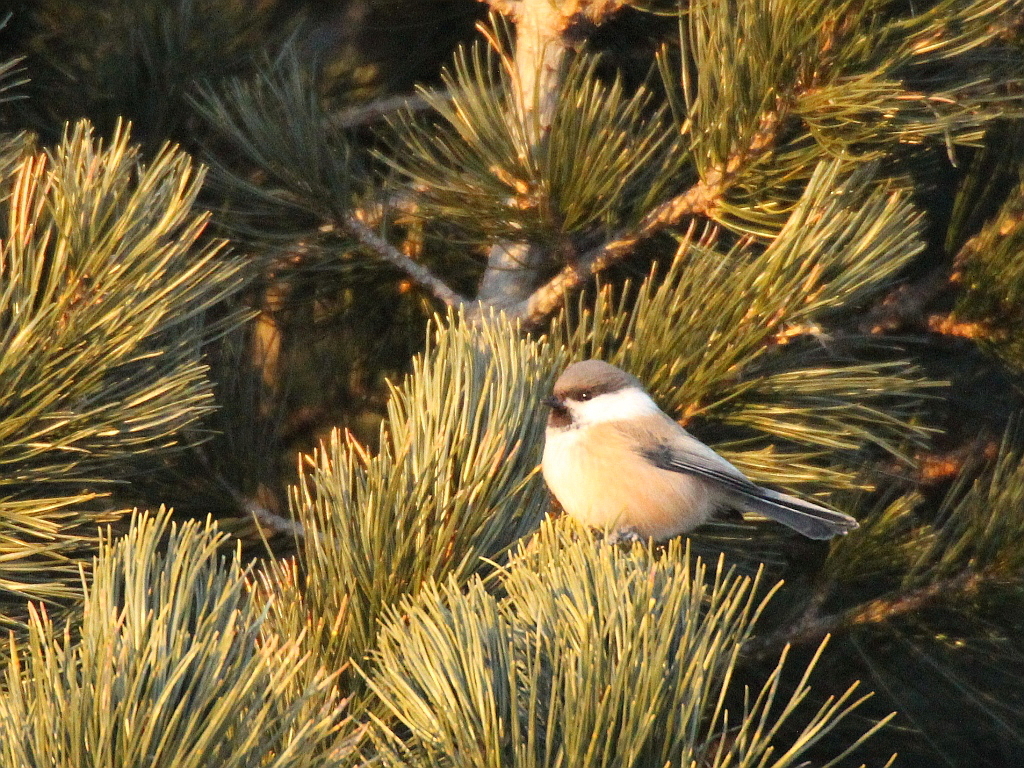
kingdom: Animalia
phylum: Chordata
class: Aves
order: Passeriformes
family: Paridae
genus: Poecile
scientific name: Poecile cinctus
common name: Gray-headed chickadee
